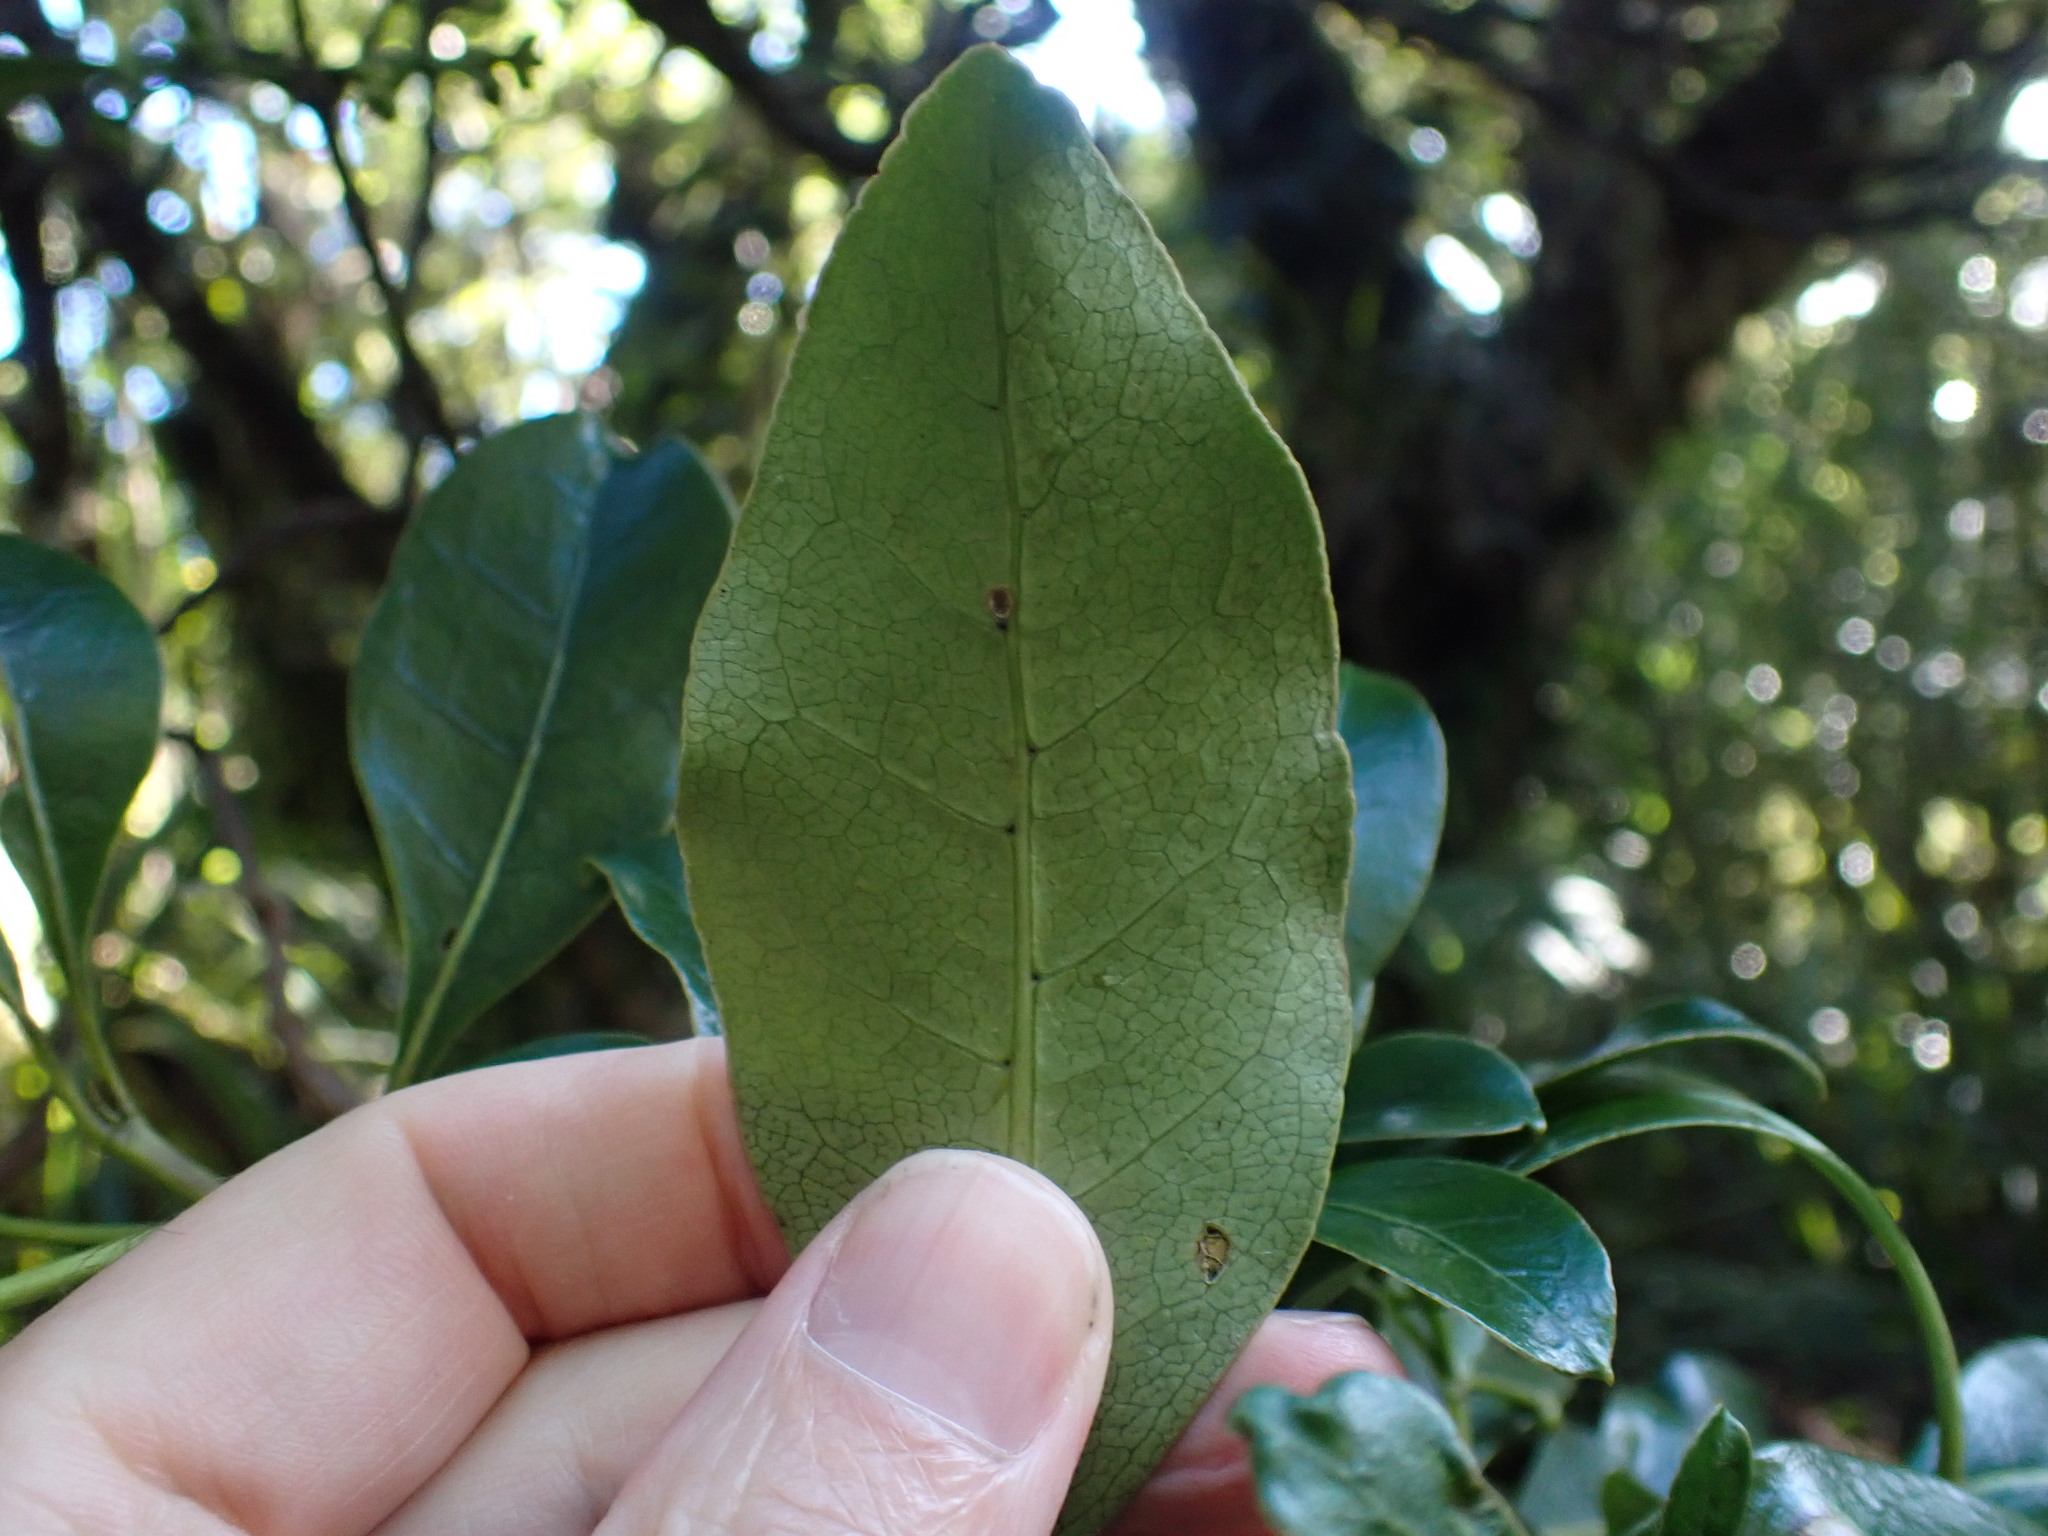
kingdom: Plantae
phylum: Tracheophyta
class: Magnoliopsida
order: Gentianales
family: Rubiaceae
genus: Coprosma
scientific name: Coprosma lucida
